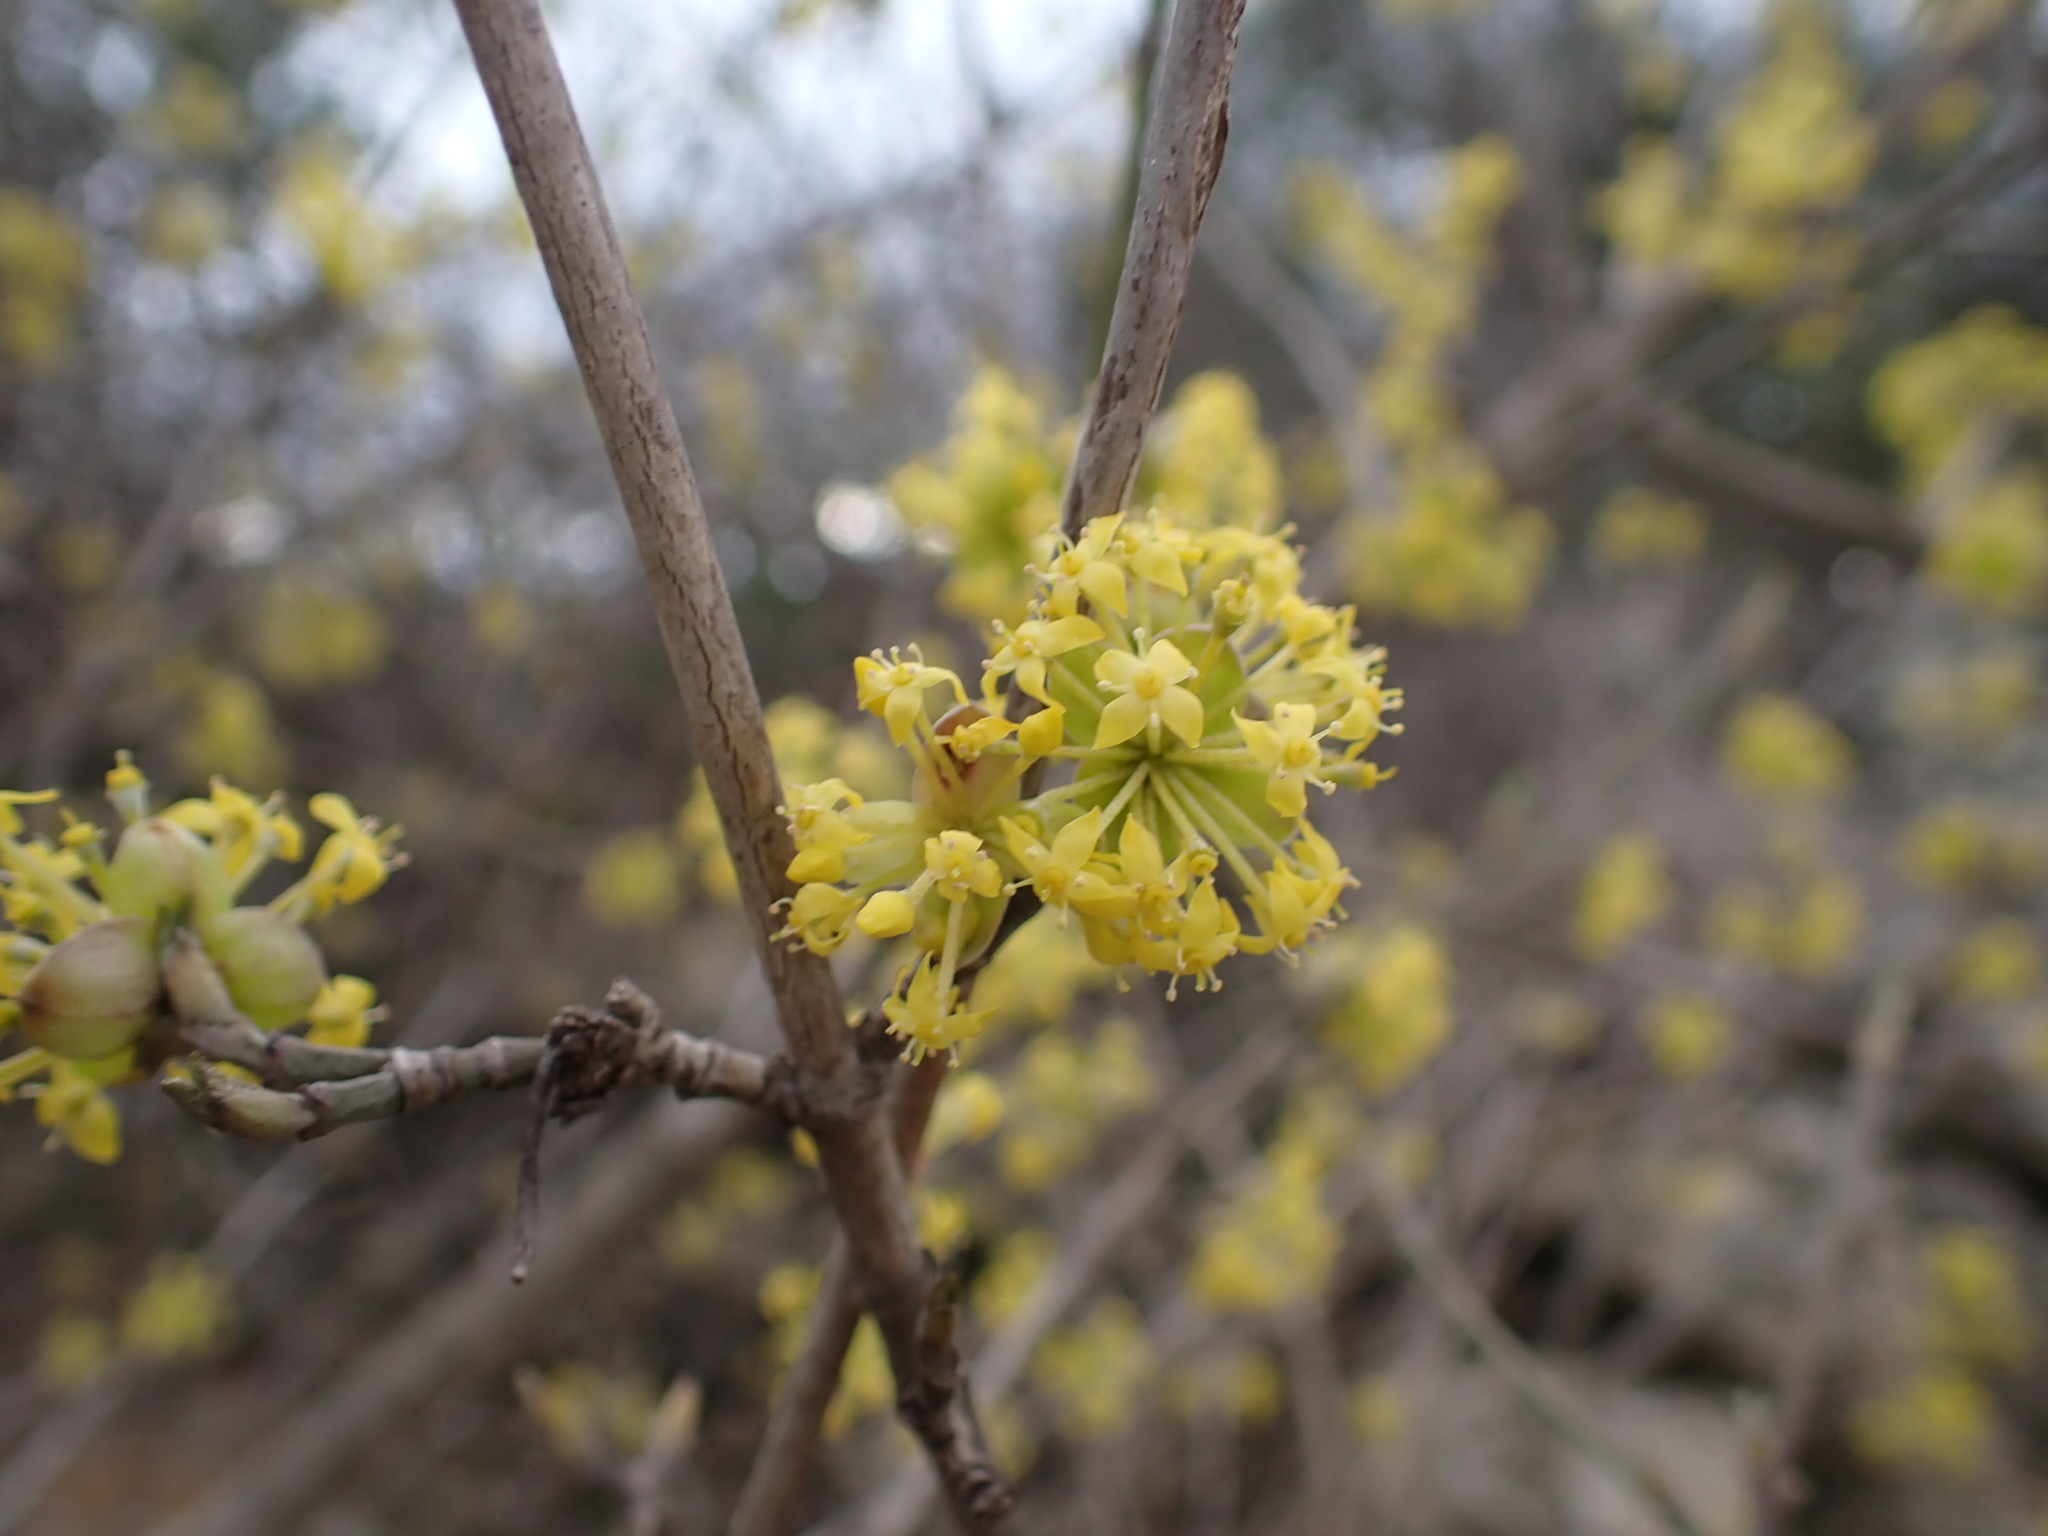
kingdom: Plantae
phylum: Tracheophyta
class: Magnoliopsida
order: Cornales
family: Cornaceae
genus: Cornus
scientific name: Cornus mas
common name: Cornelian-cherry
